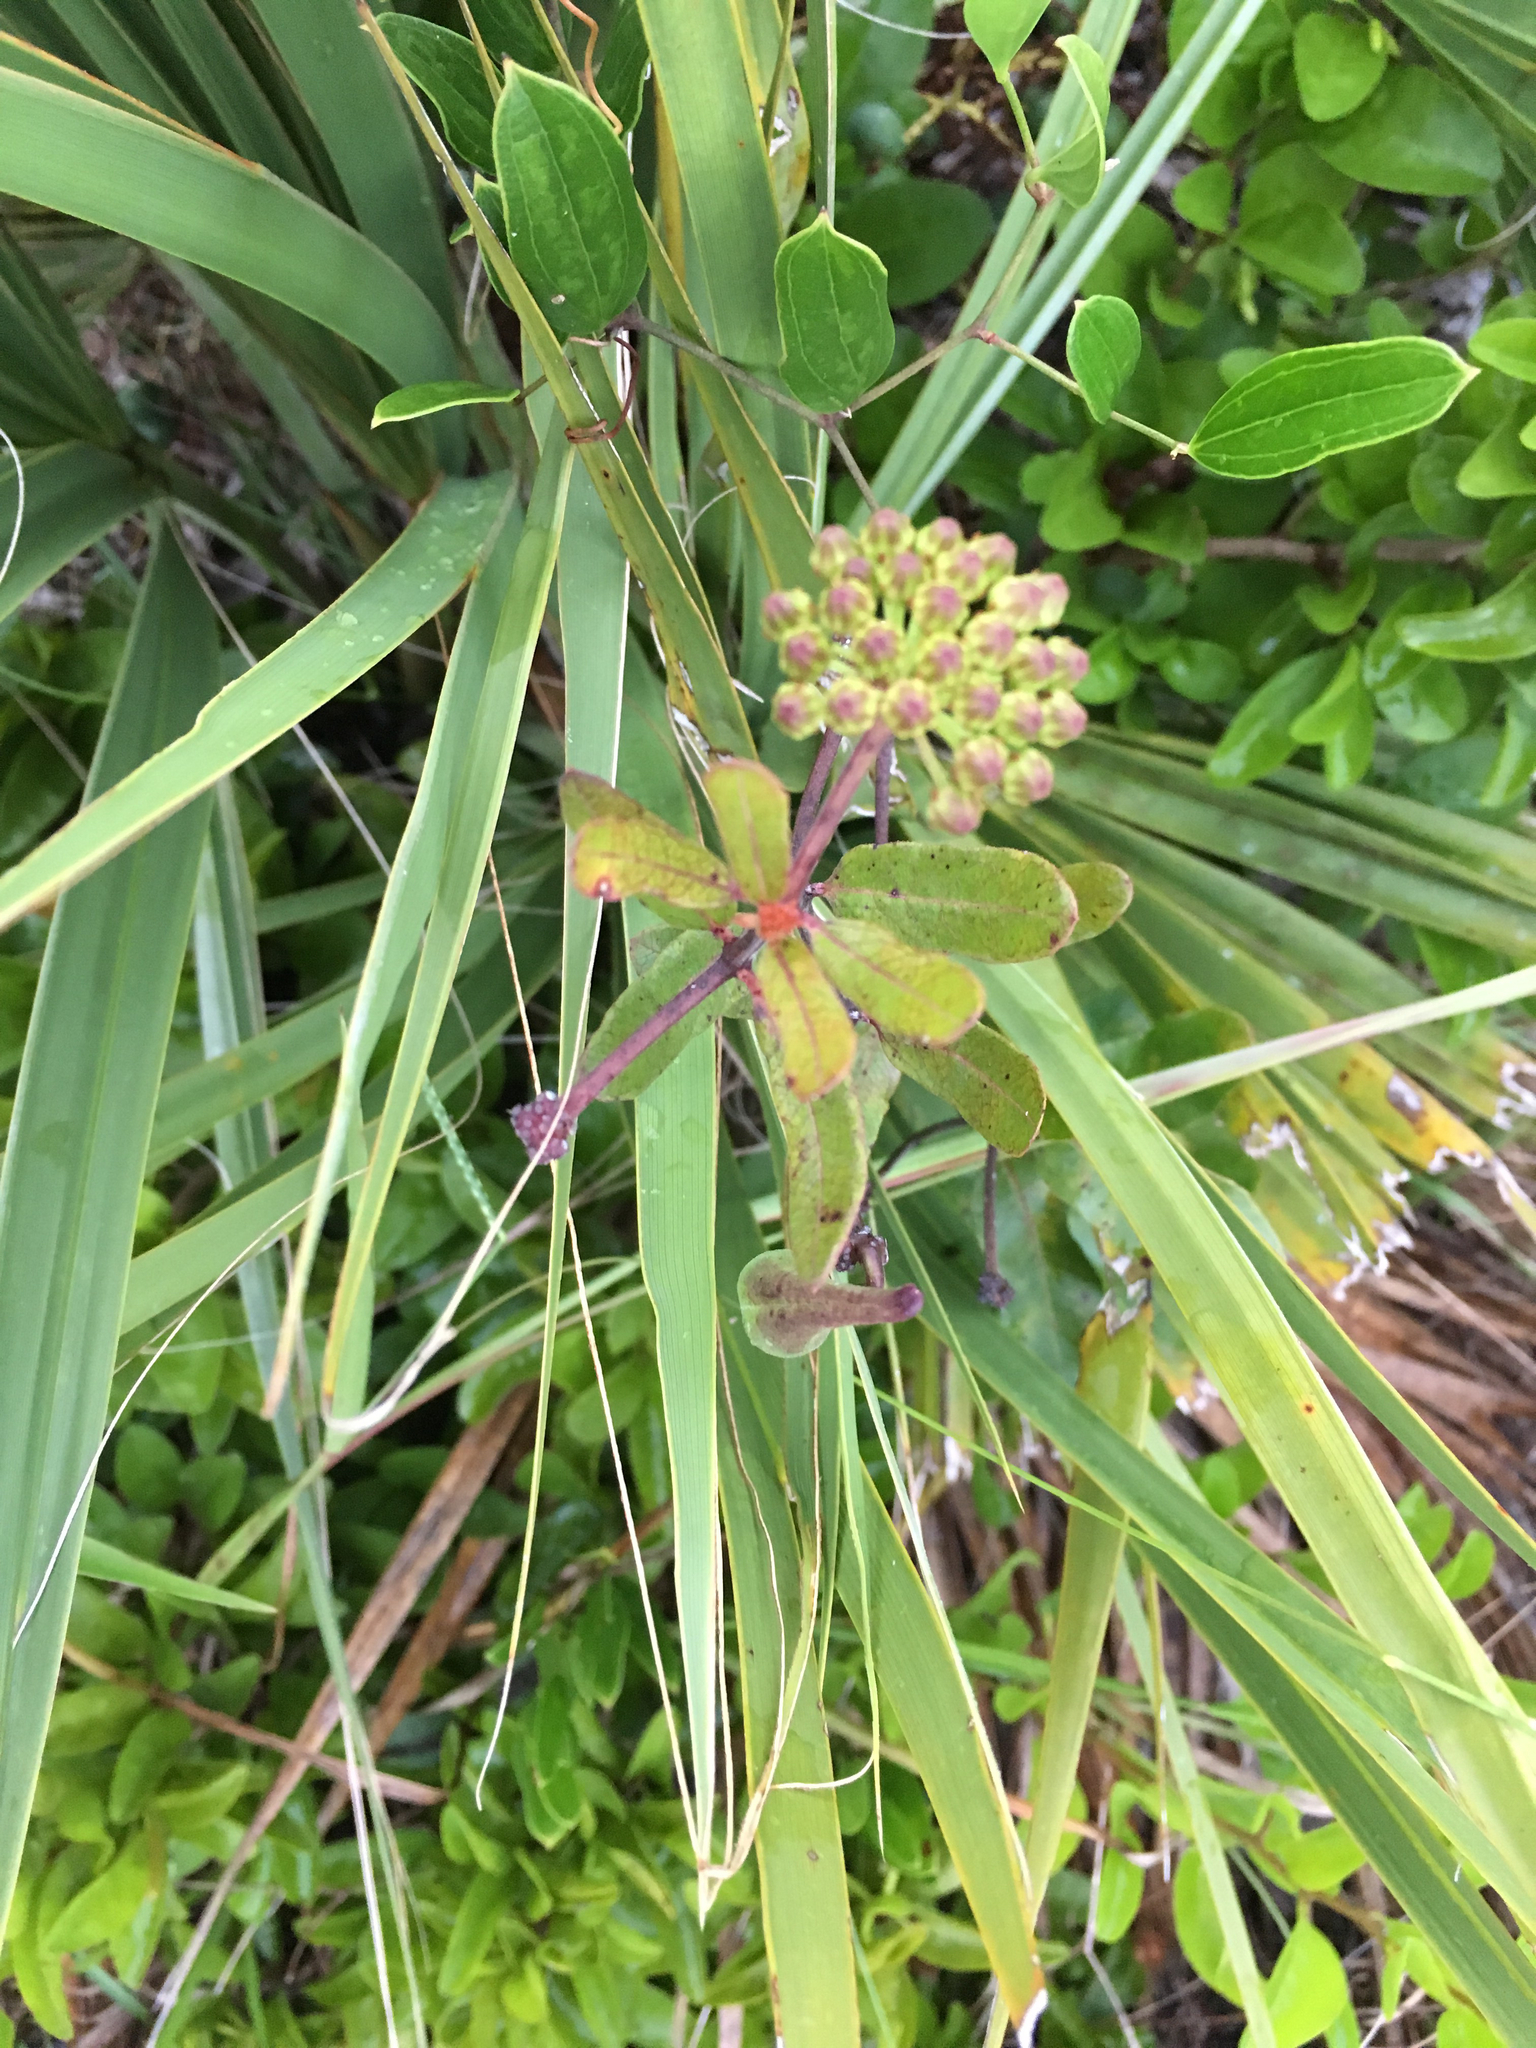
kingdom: Plantae
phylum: Tracheophyta
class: Magnoliopsida
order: Gentianales
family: Apocynaceae
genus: Asclepias
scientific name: Asclepias curtissii
